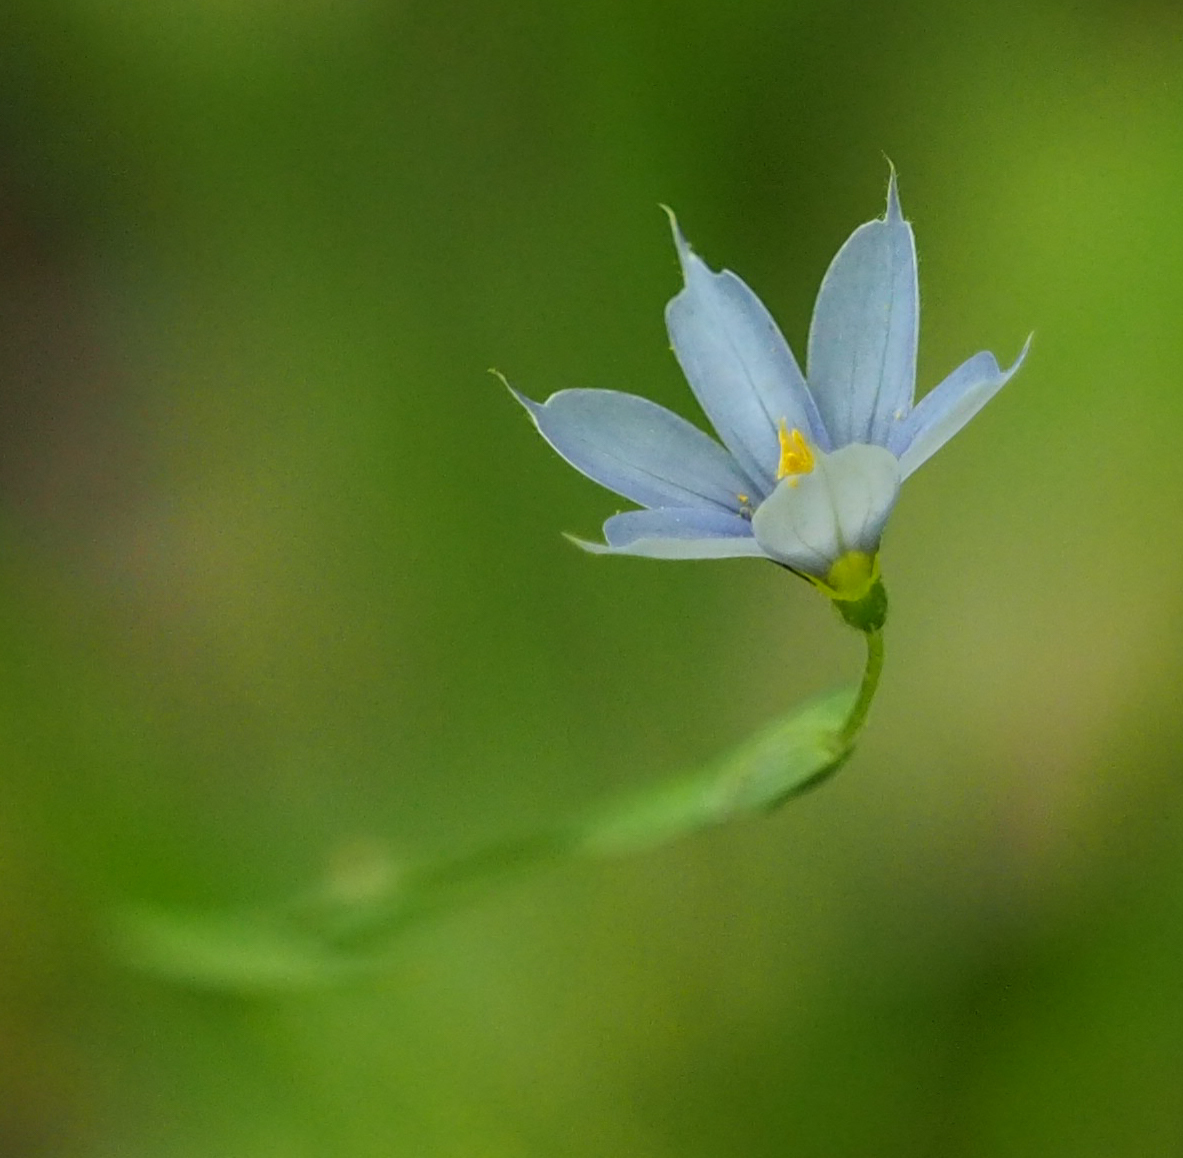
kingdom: Plantae
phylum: Tracheophyta
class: Liliopsida
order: Asparagales
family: Iridaceae
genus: Sisyrinchium
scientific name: Sisyrinchium angustifolium
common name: Narrow-leaf blue-eyed-grass
